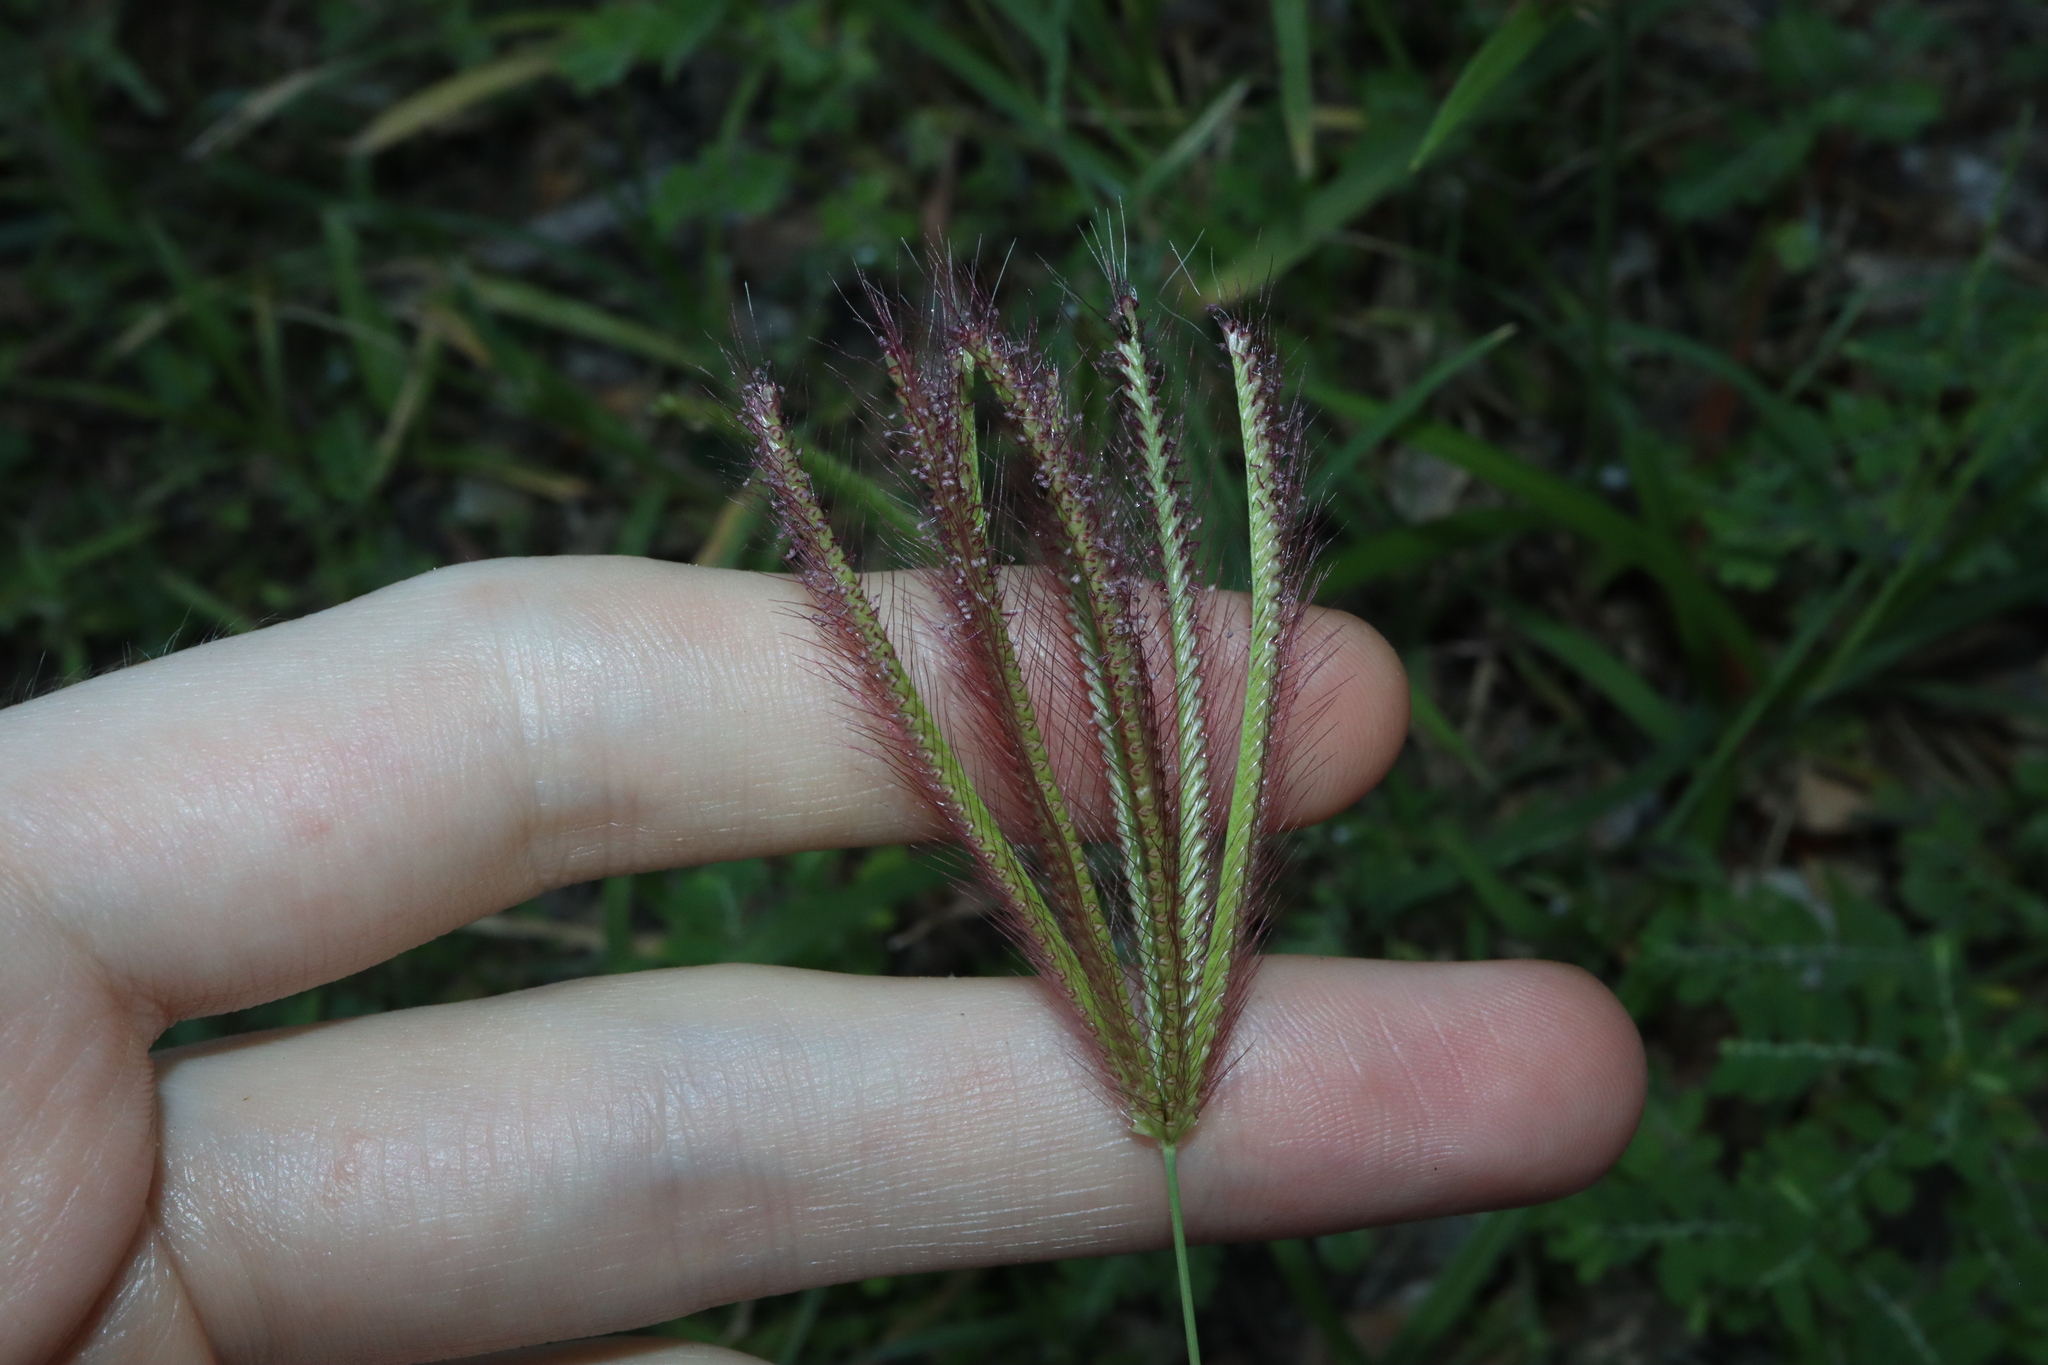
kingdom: Plantae
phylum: Tracheophyta
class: Liliopsida
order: Poales
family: Poaceae
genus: Chloris
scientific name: Chloris barbata
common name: Swollen fingergrass
